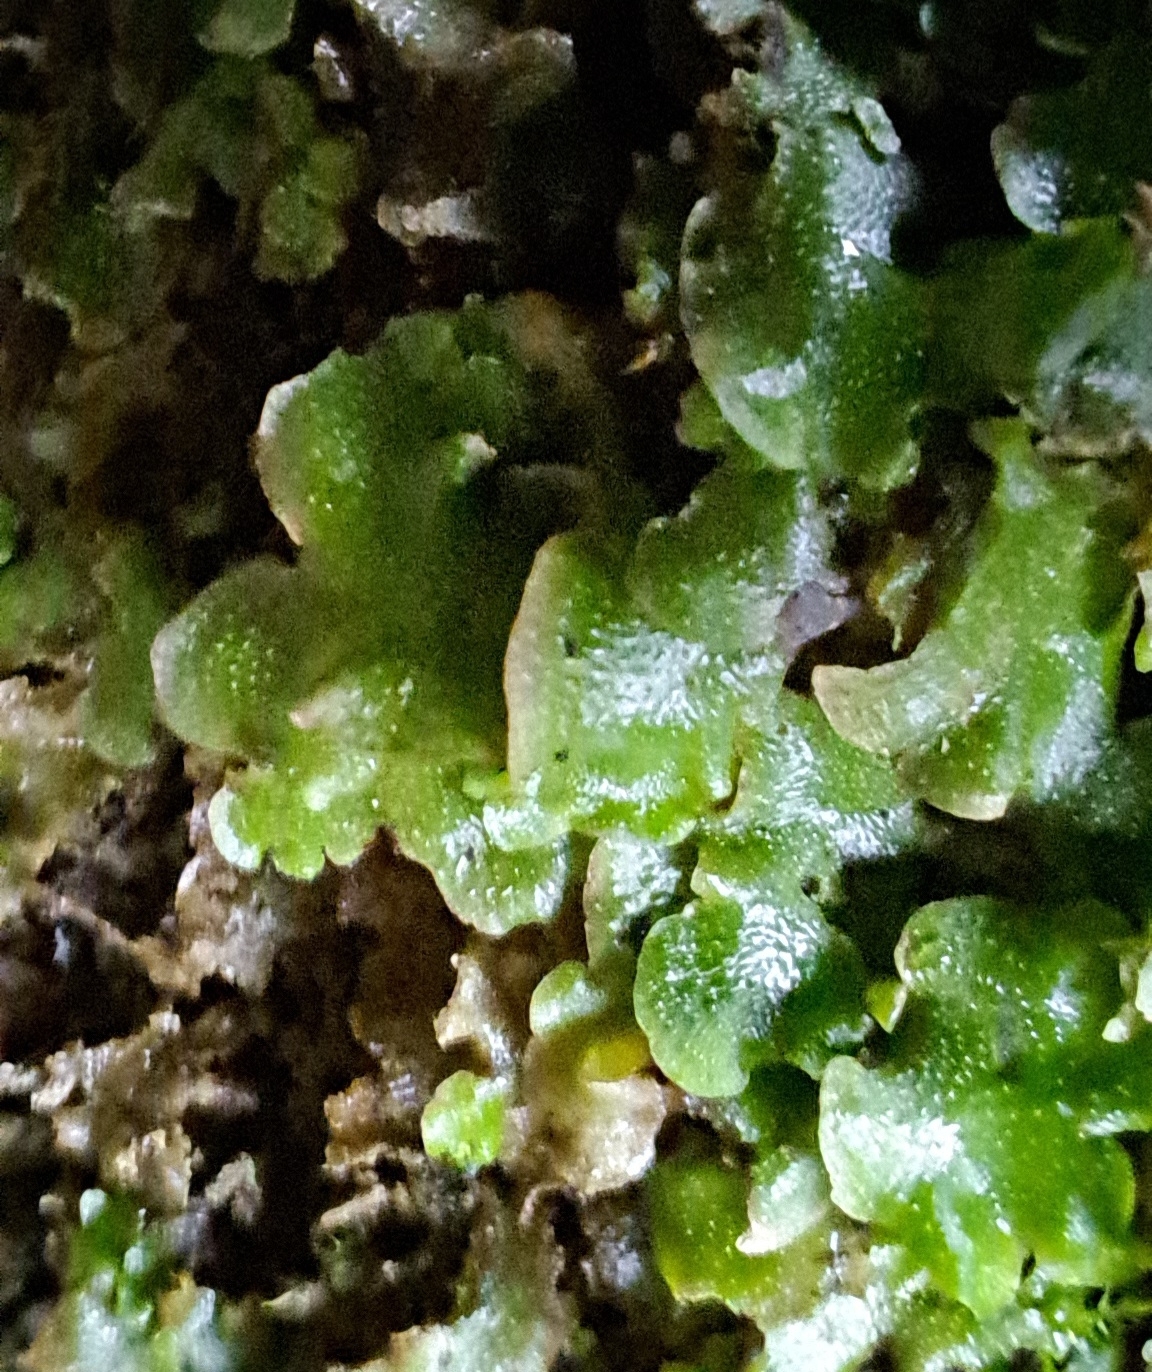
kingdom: Plantae
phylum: Marchantiophyta
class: Marchantiopsida
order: Lunulariales
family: Lunulariaceae
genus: Lunularia
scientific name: Lunularia cruciata
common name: Crescent-cup liverwort
